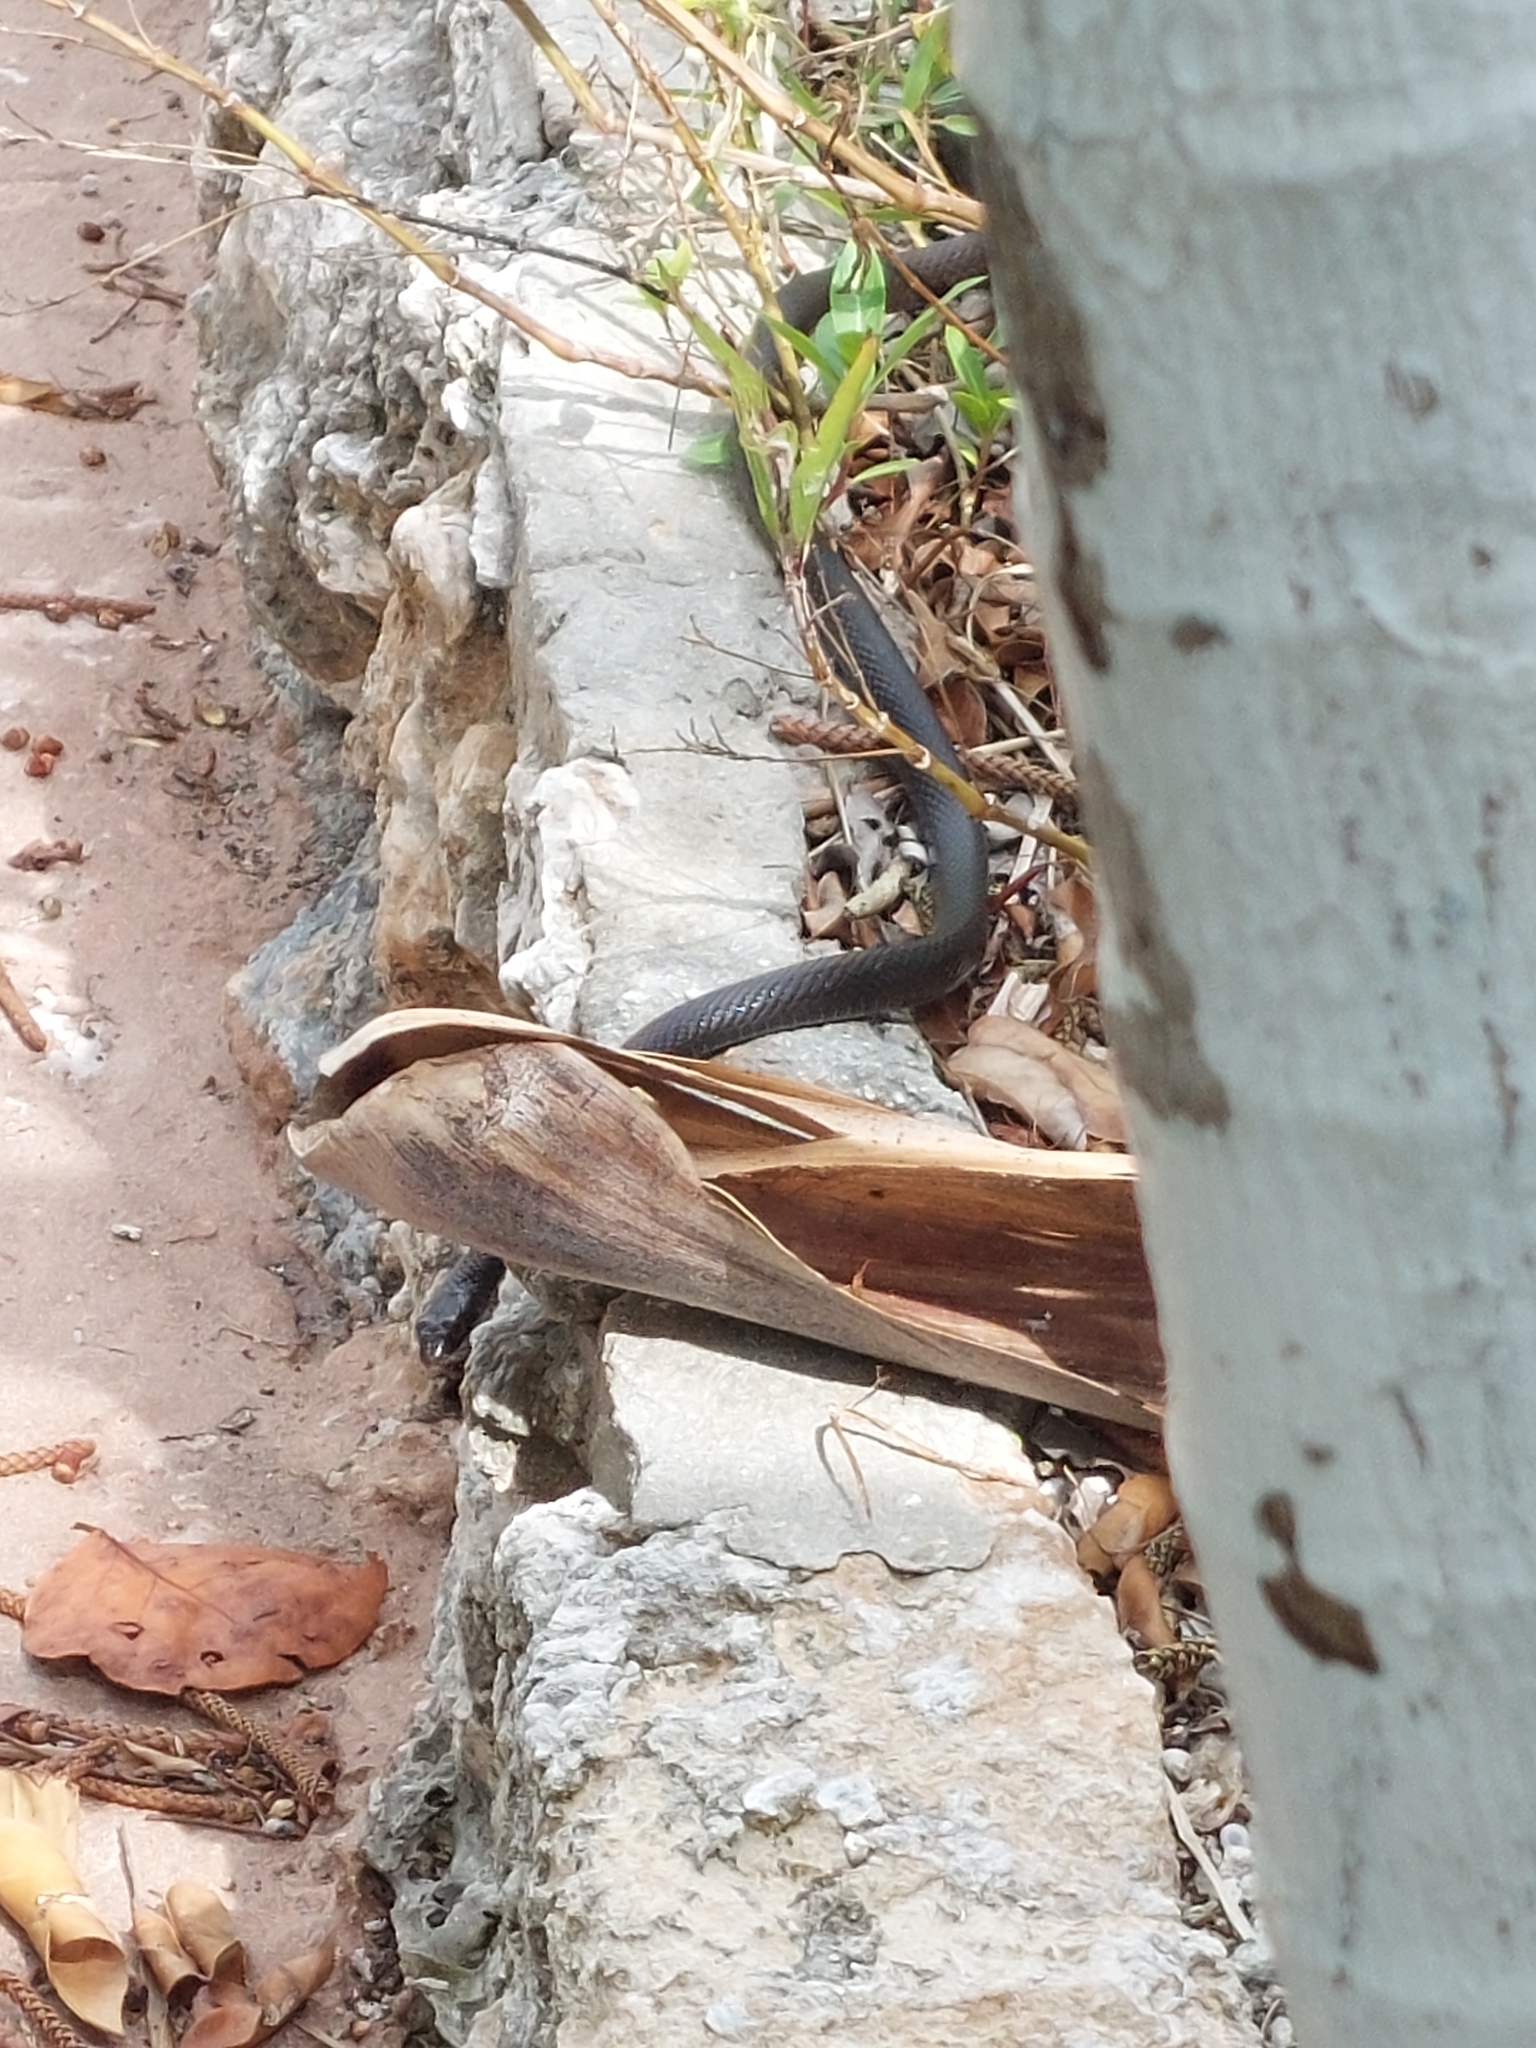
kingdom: Animalia
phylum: Chordata
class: Squamata
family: Colubridae
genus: Coluber
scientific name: Coluber constrictor
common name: Eastern racer
